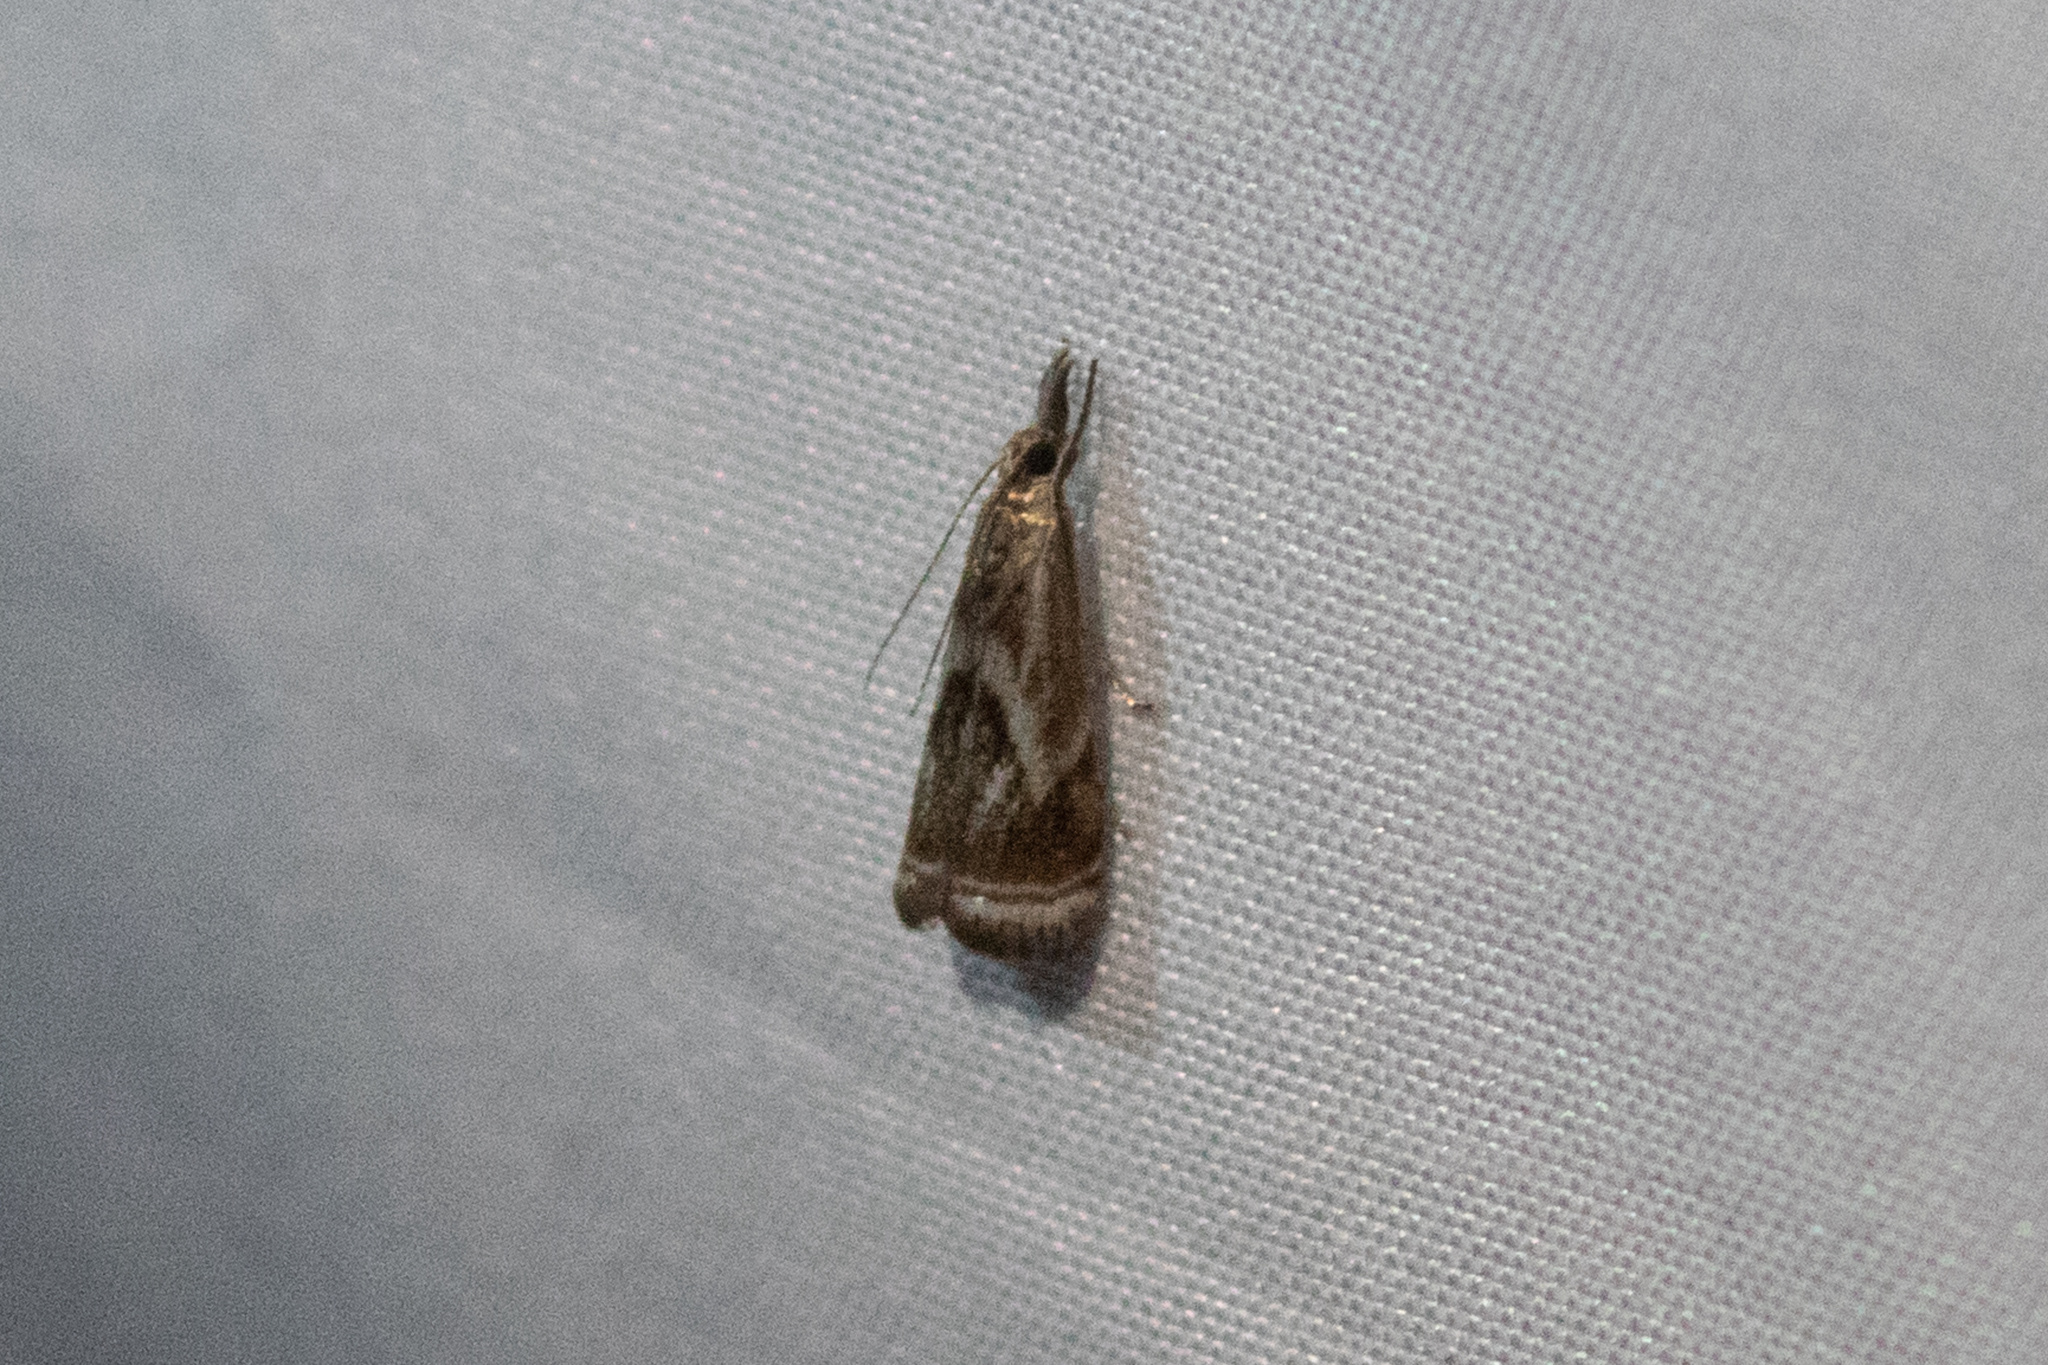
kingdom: Animalia
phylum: Arthropoda
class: Insecta
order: Lepidoptera
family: Crambidae
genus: Microcrambus
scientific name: Microcrambus elegans
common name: Elegant grass-veneer
